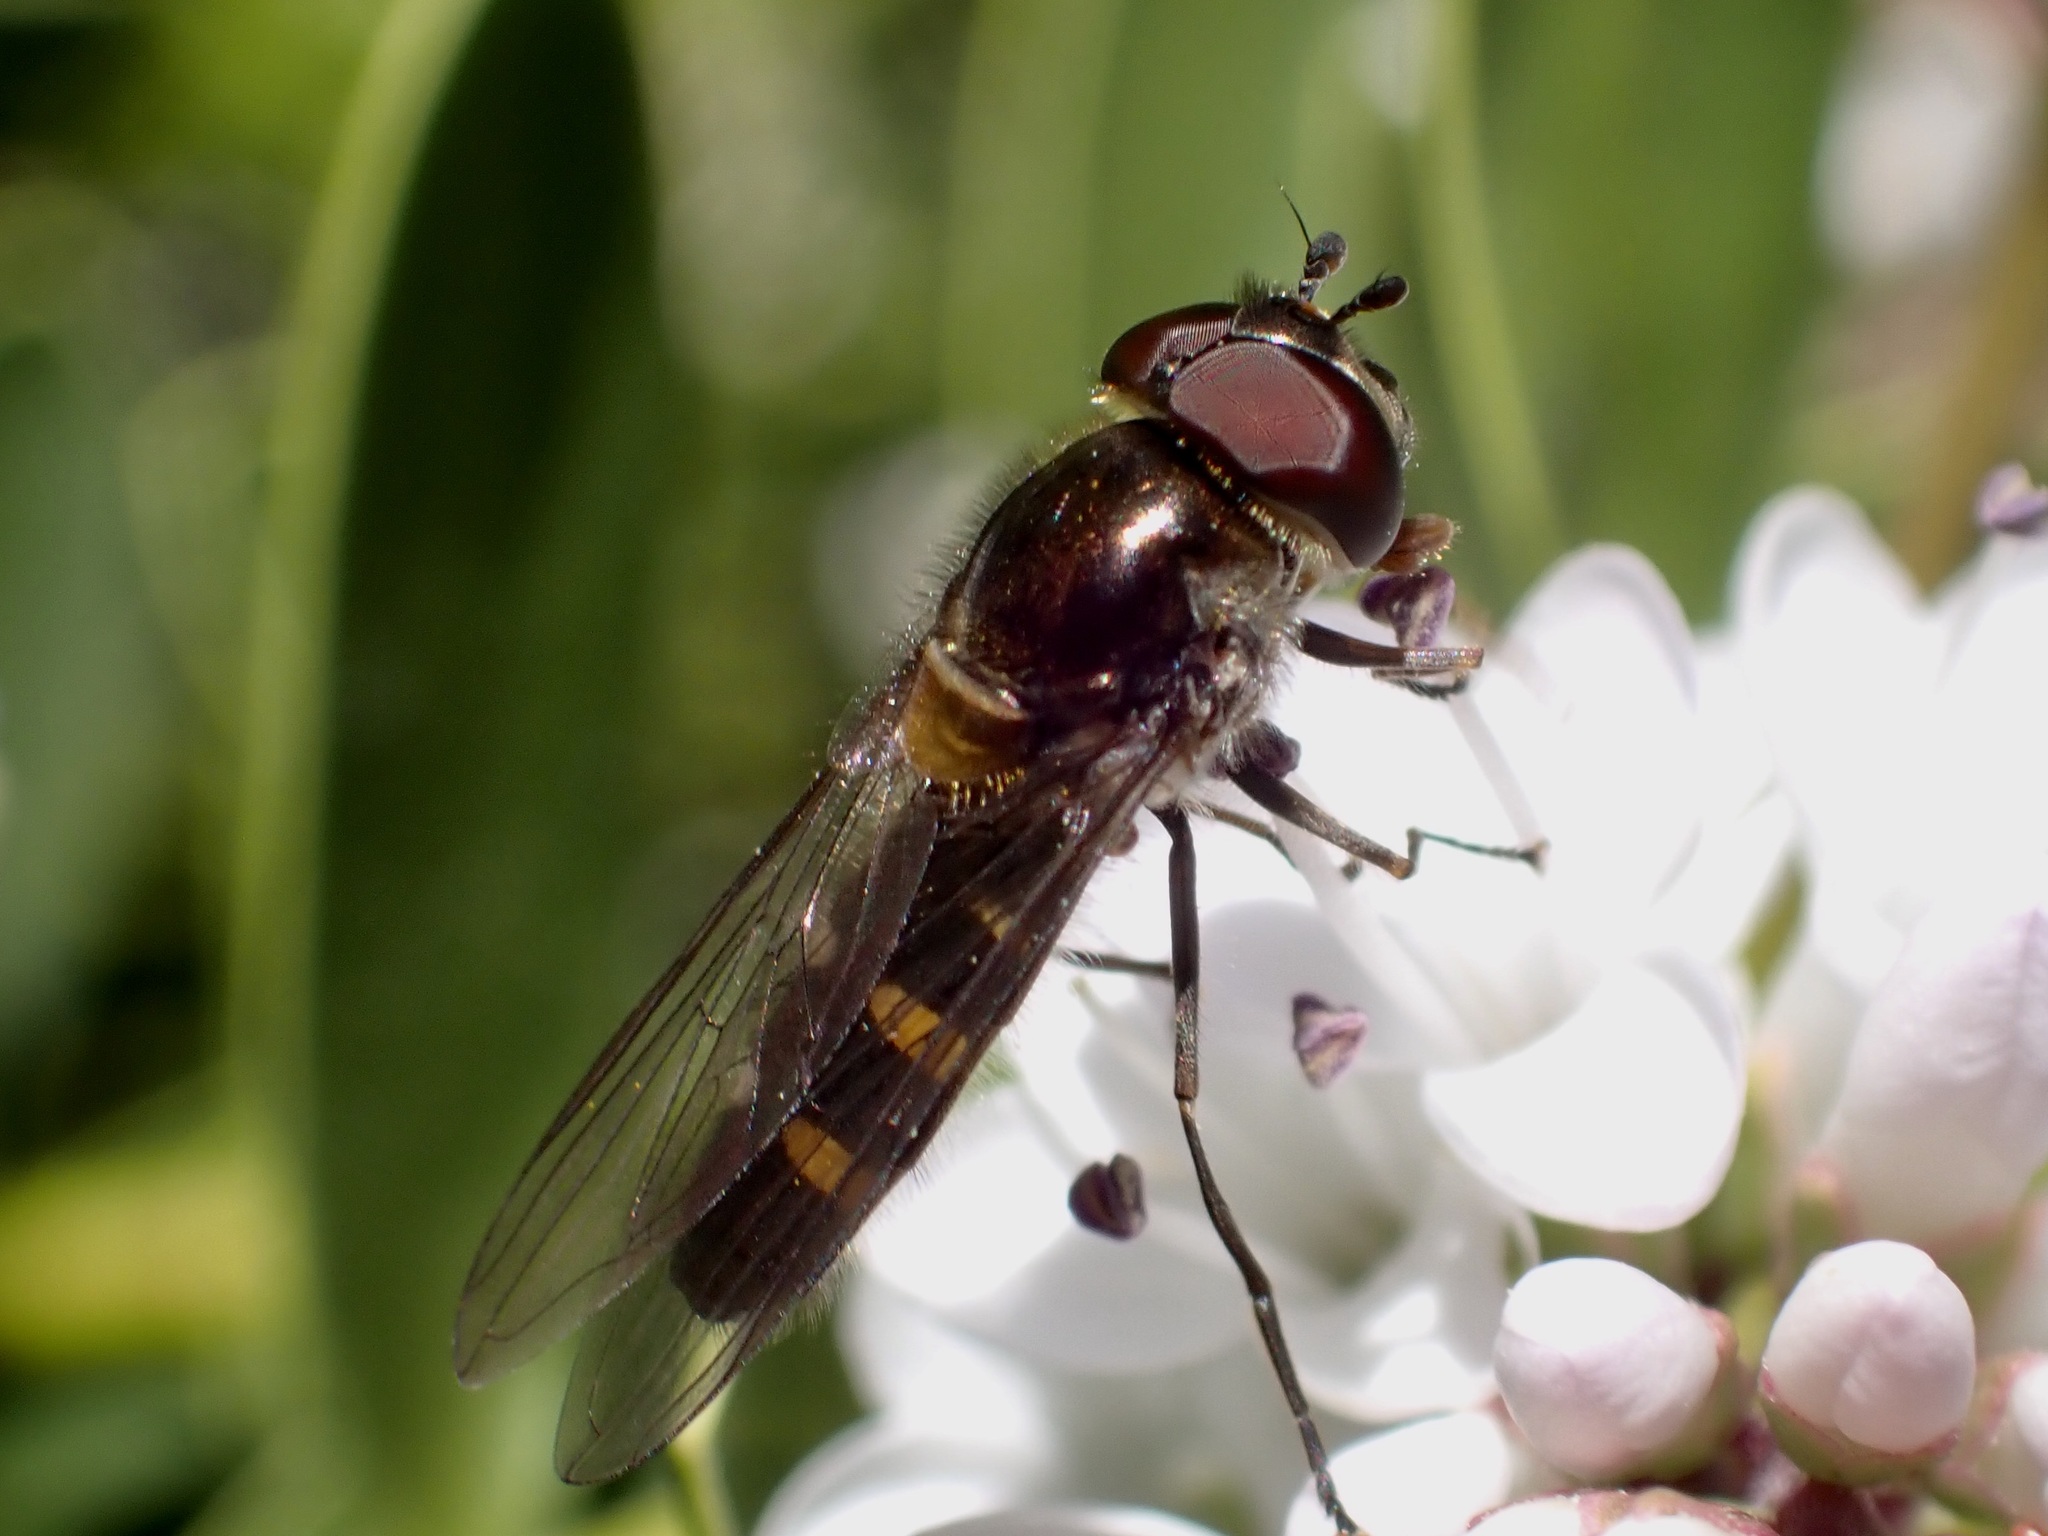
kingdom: Animalia
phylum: Arthropoda
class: Insecta
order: Diptera
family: Syrphidae
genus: Melangyna
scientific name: Melangyna novaezelandiae
